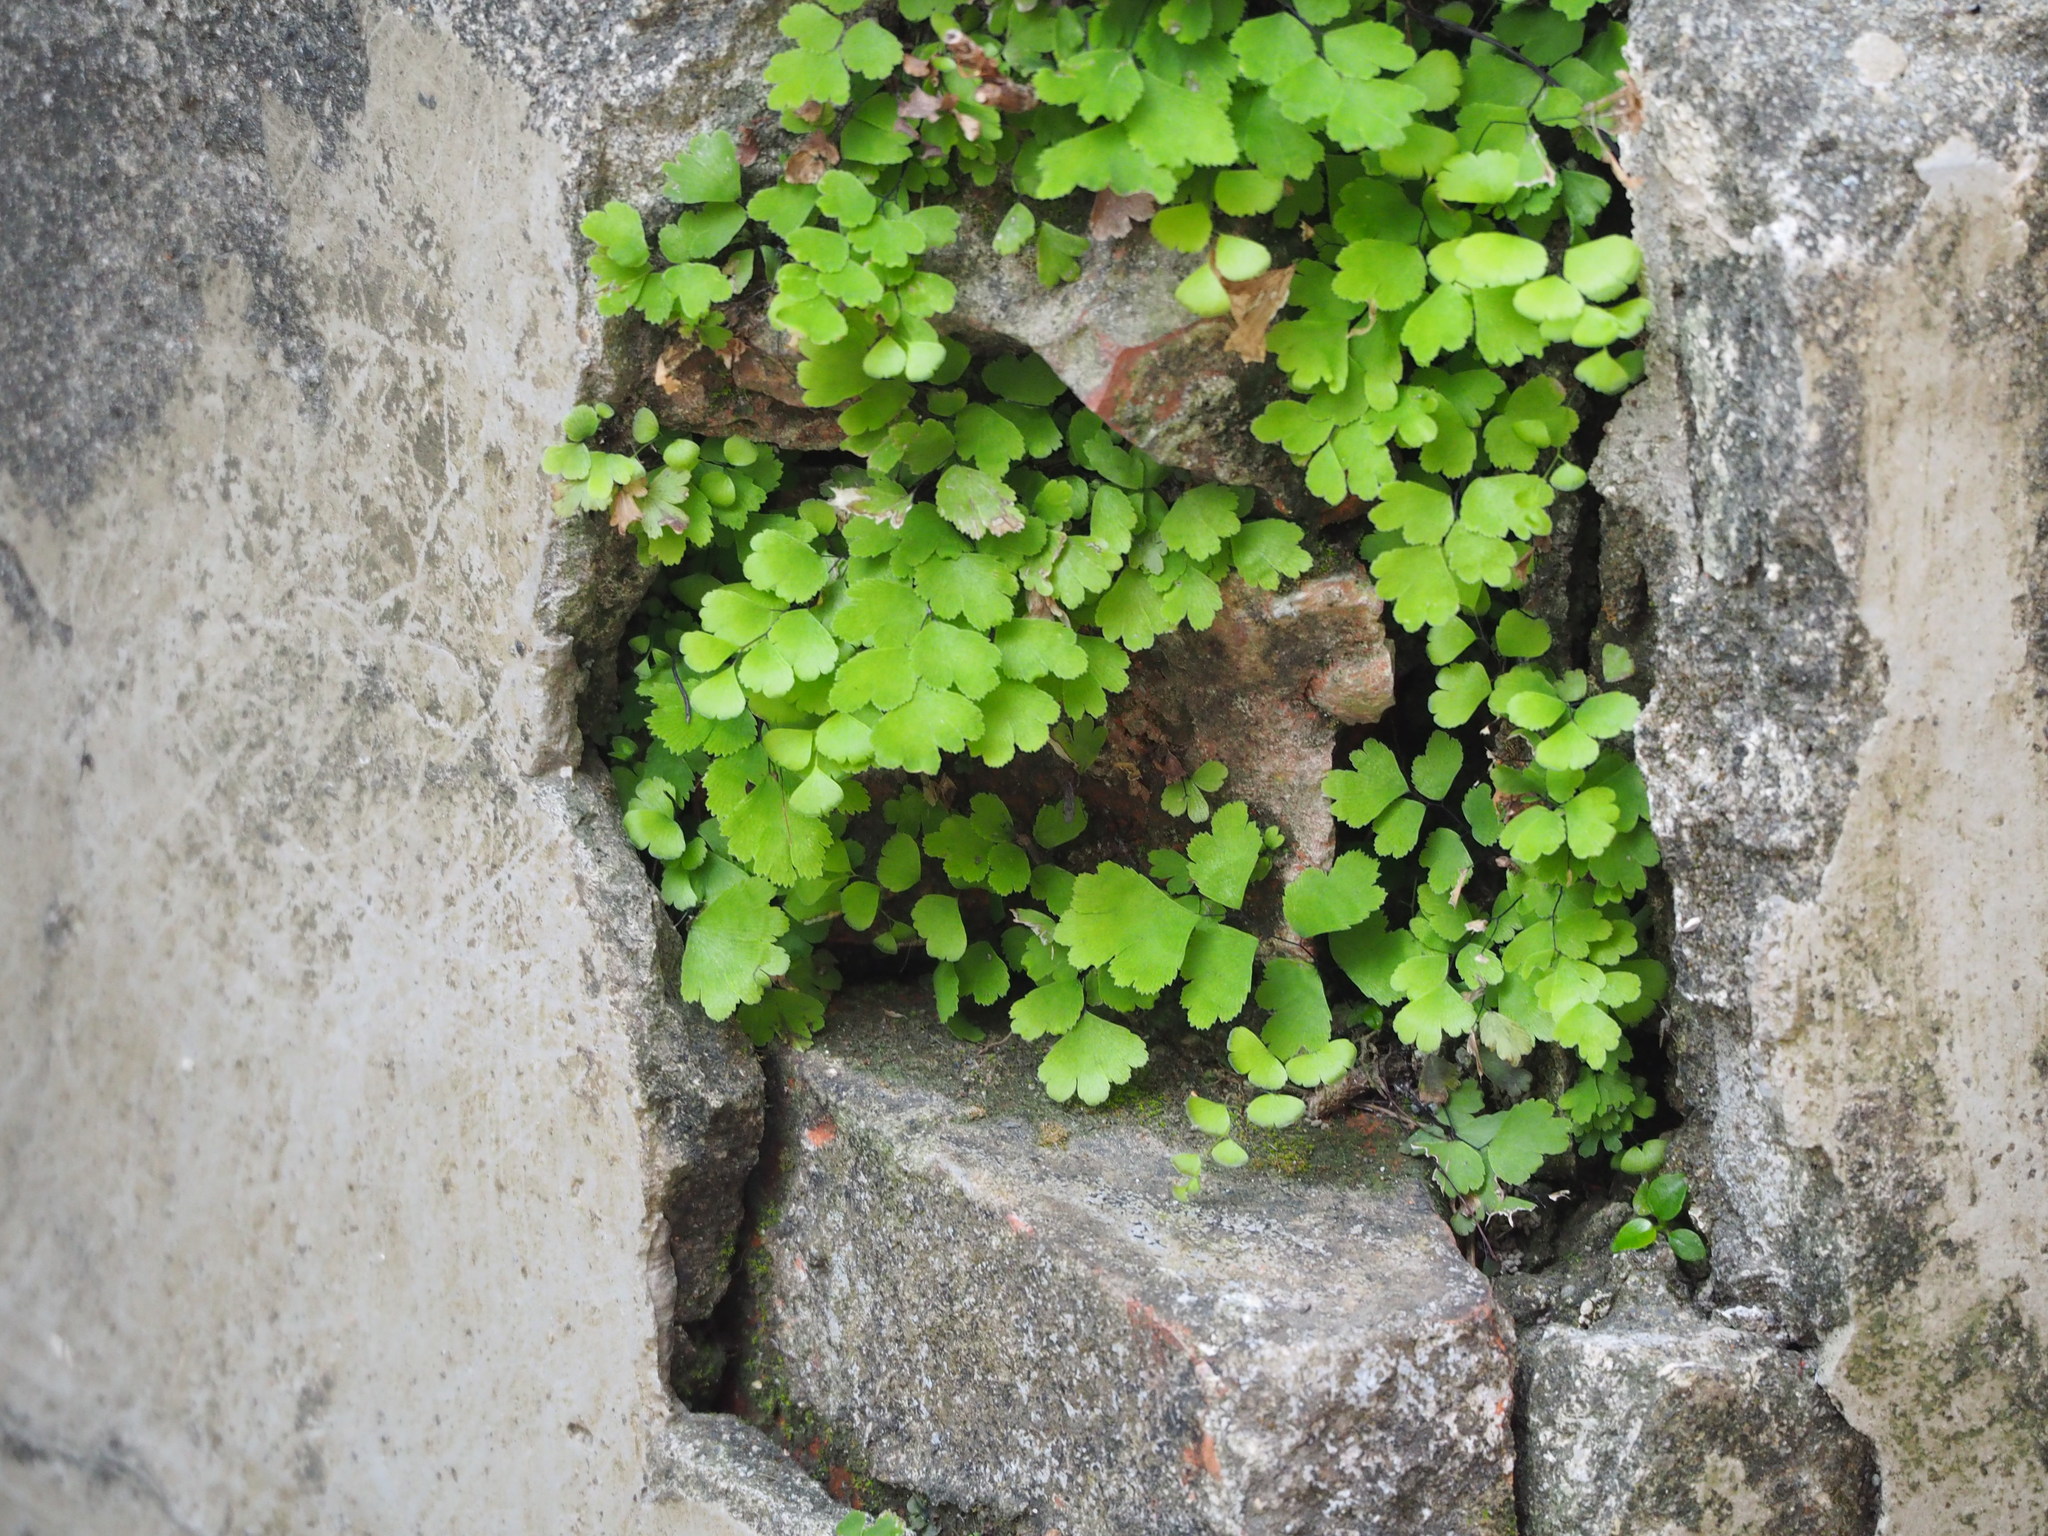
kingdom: Plantae
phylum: Tracheophyta
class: Polypodiopsida
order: Polypodiales
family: Pteridaceae
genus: Adiantum
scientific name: Adiantum capillus-veneris
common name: Maidenhair fern
